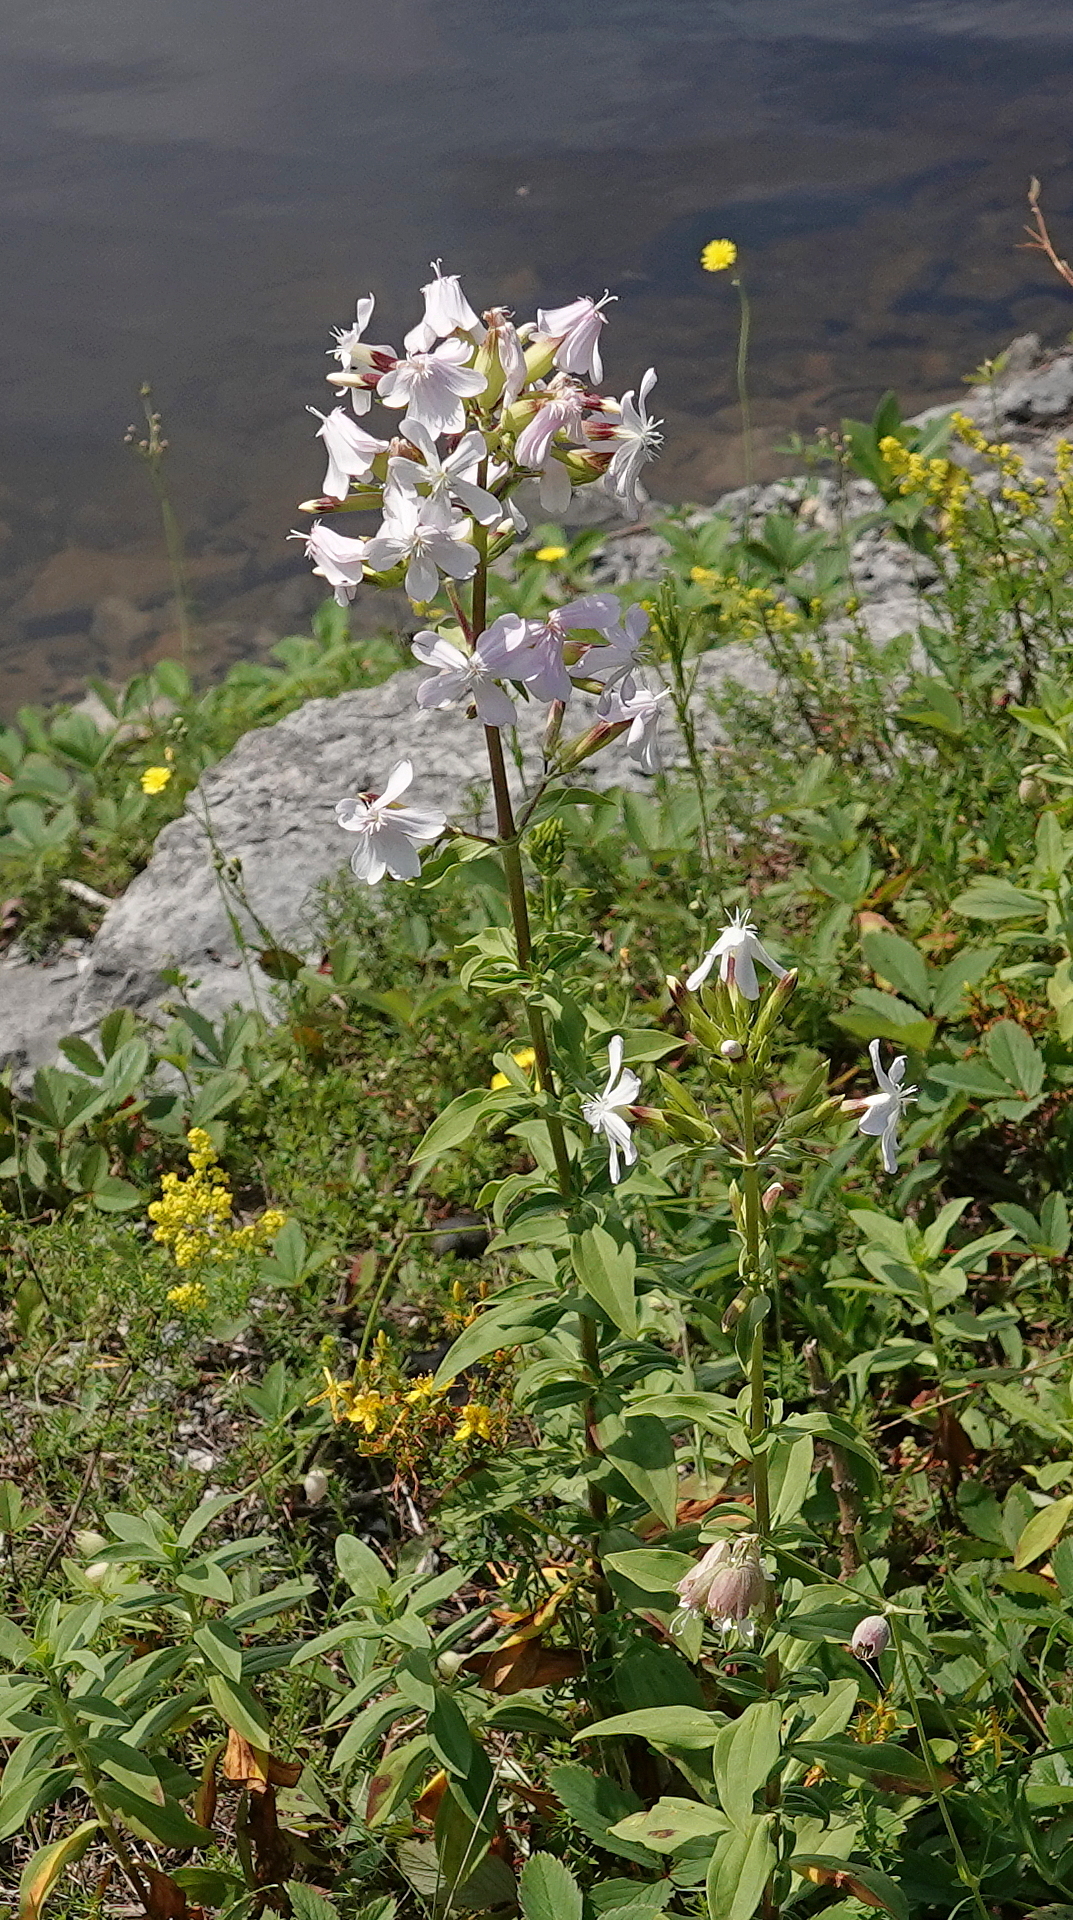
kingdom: Plantae
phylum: Tracheophyta
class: Magnoliopsida
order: Caryophyllales
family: Caryophyllaceae
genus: Saponaria
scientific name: Saponaria officinalis
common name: Soapwort
